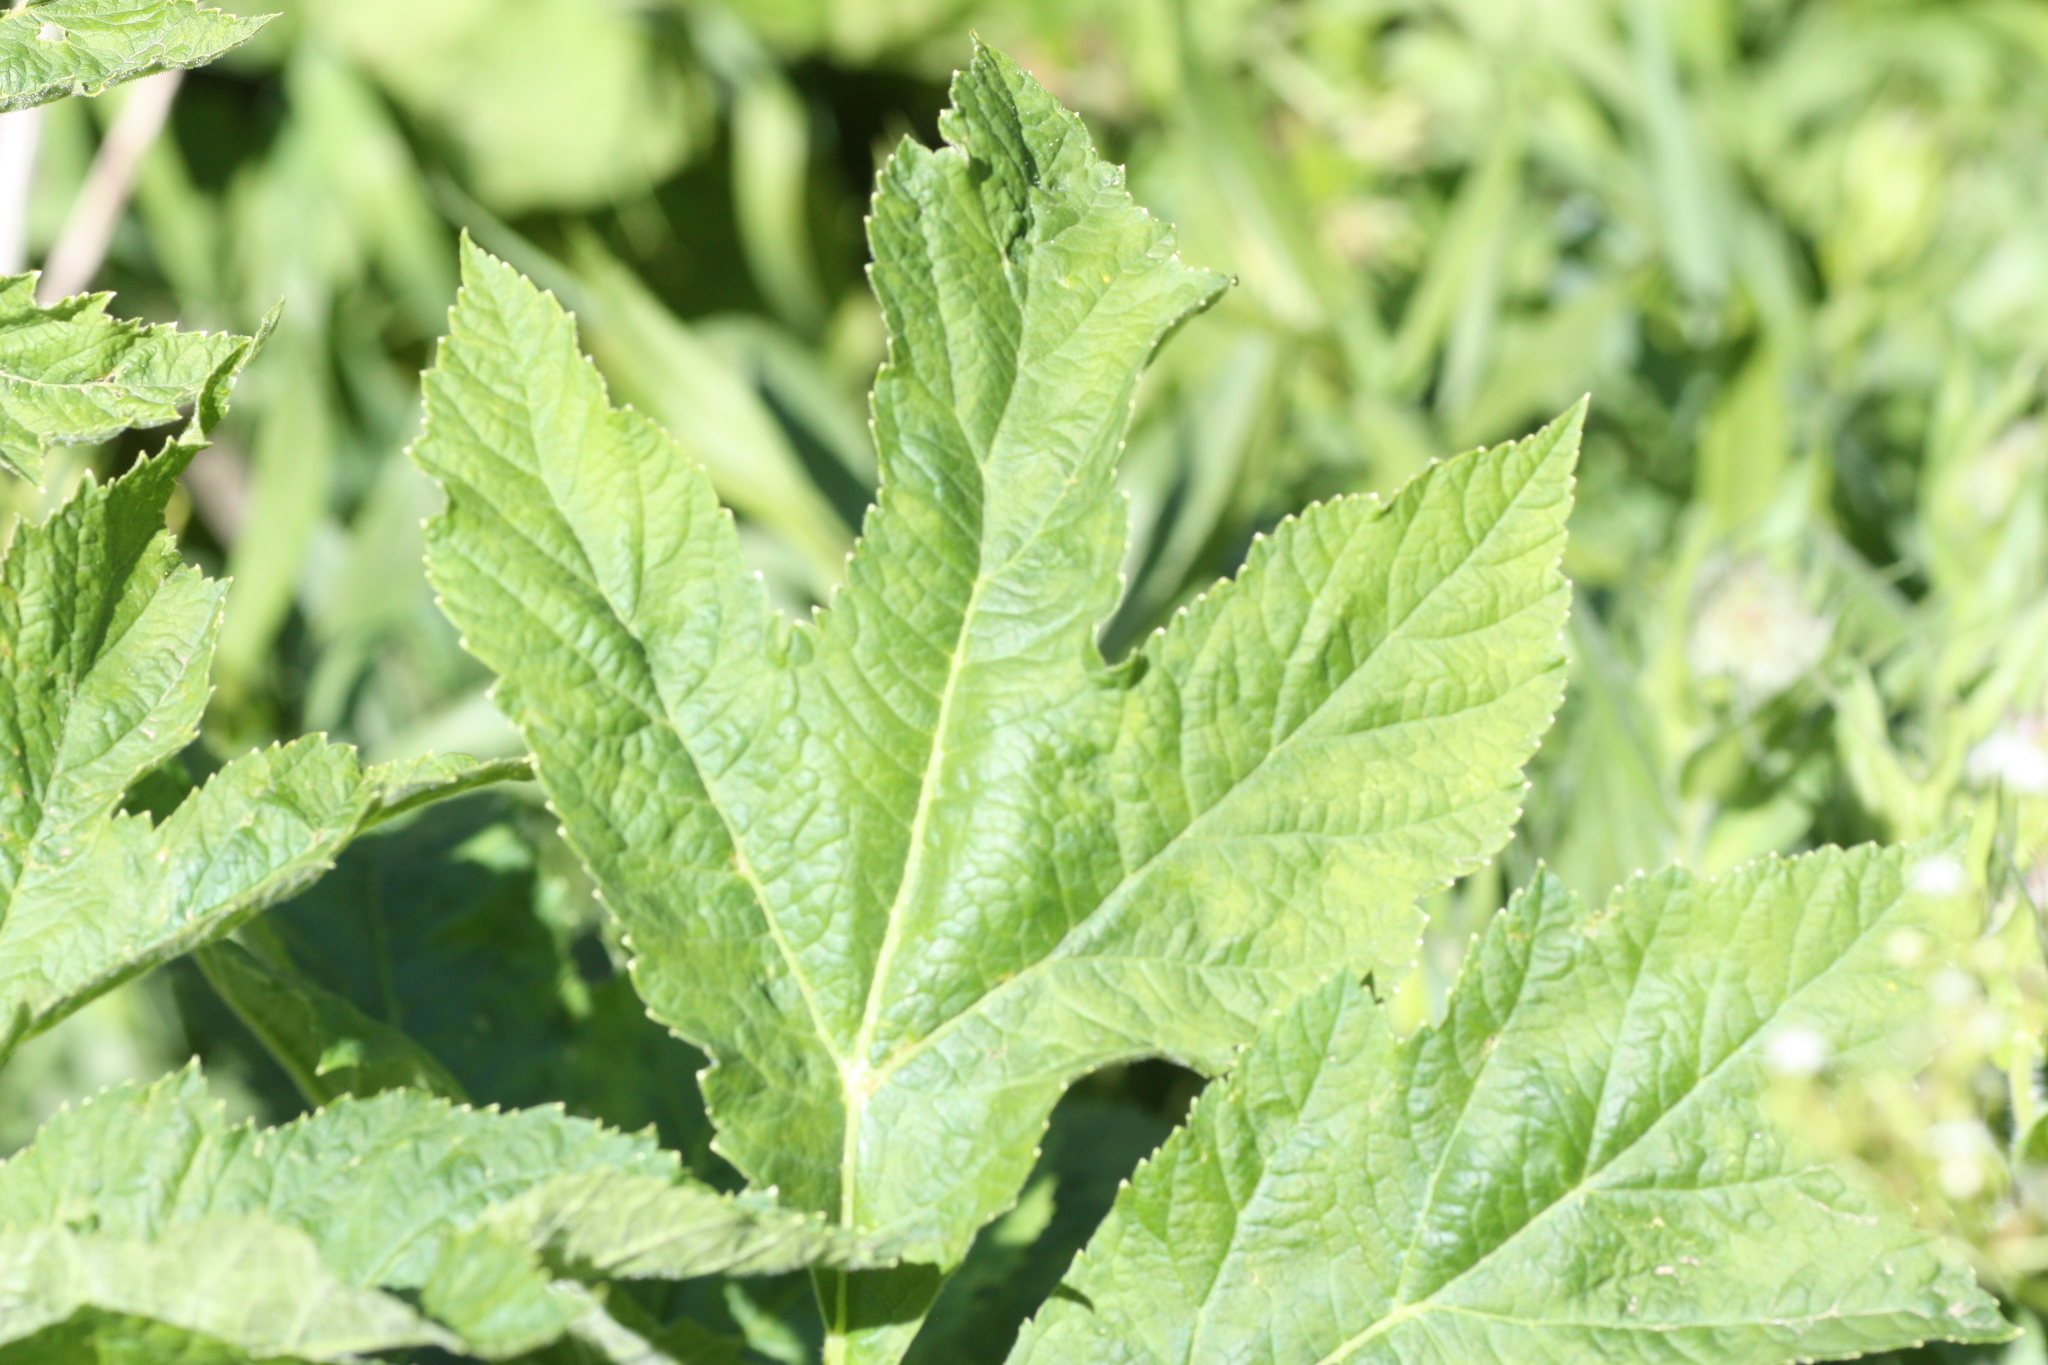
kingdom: Plantae
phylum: Tracheophyta
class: Magnoliopsida
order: Apiales
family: Apiaceae
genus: Heracleum
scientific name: Heracleum maximum
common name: American cow parsnip
